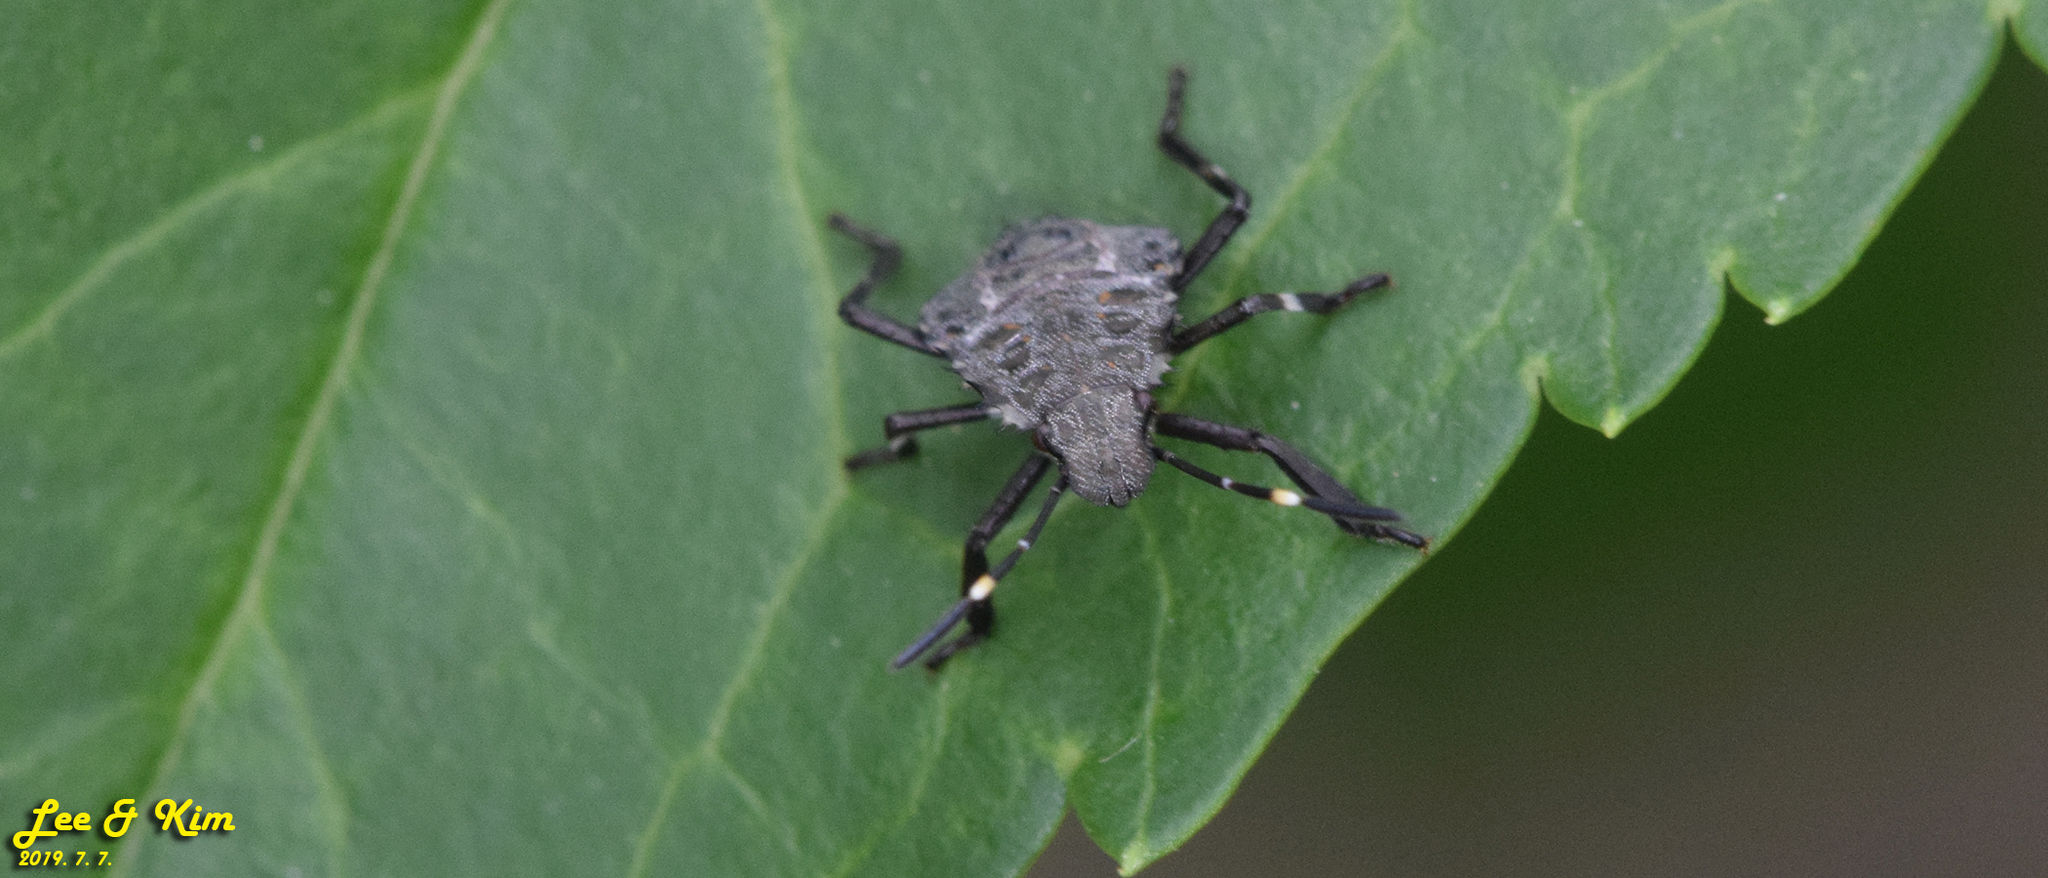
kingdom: Animalia
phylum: Arthropoda
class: Insecta
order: Hemiptera
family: Pentatomidae
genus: Halyomorpha
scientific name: Halyomorpha halys
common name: Brown marmorated stink bug
